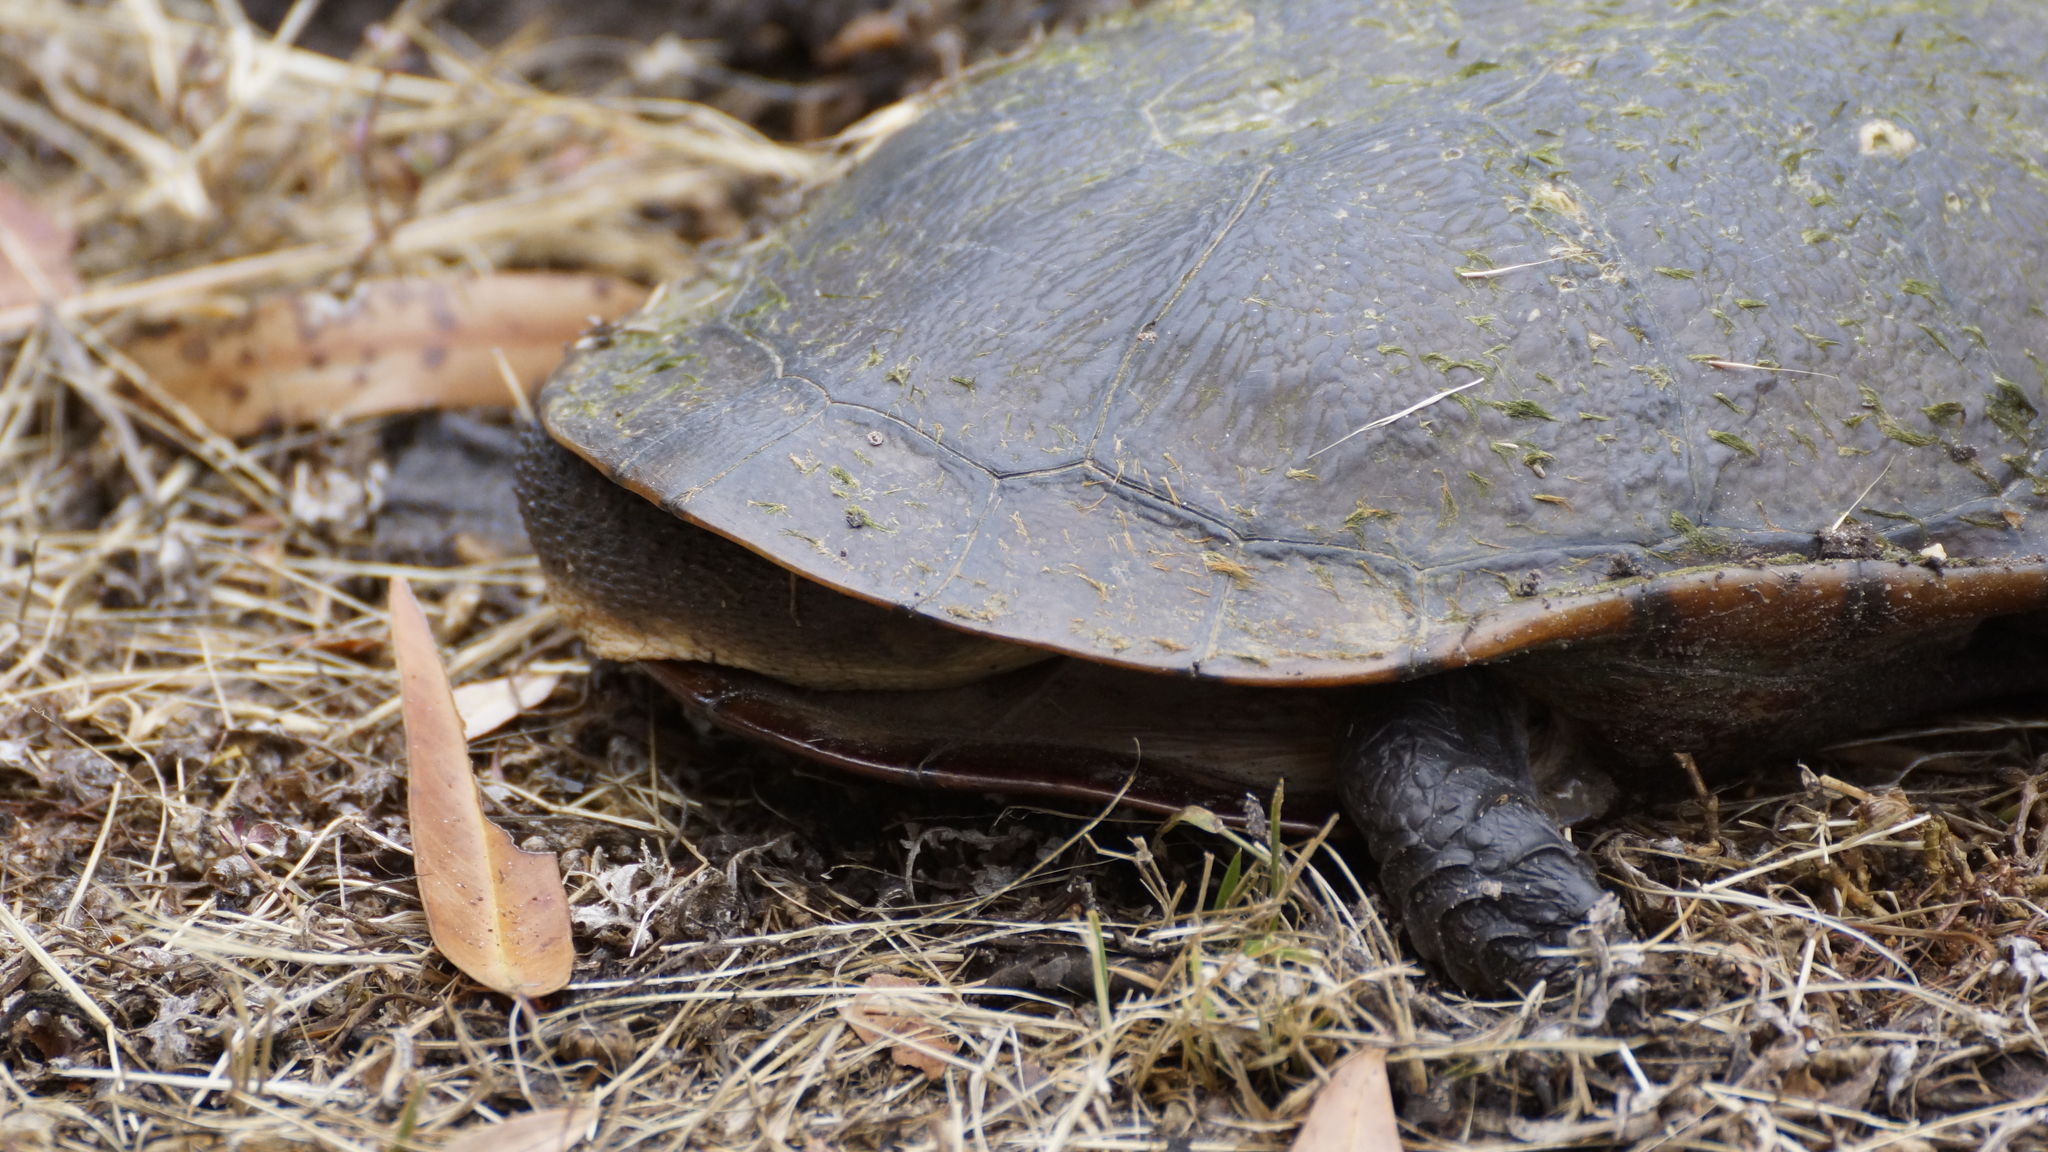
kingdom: Animalia
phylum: Chordata
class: Testudines
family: Chelidae
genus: Chelodina
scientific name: Chelodina longicollis
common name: Eastern snake-necked turtle
